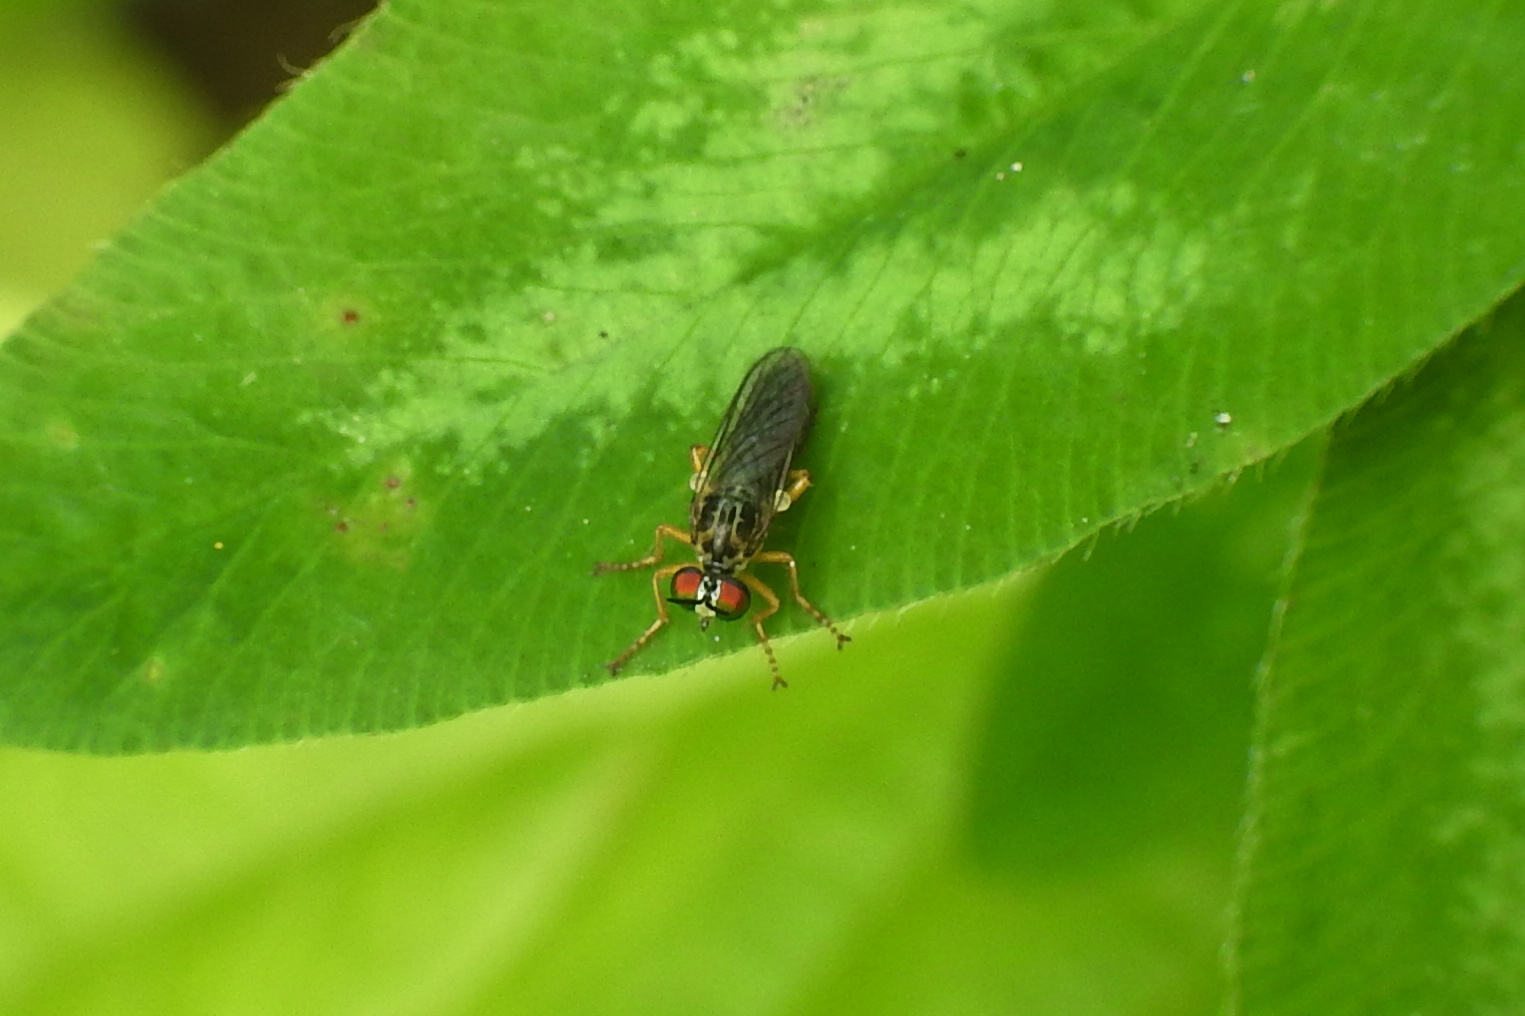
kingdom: Animalia
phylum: Arthropoda
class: Insecta
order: Diptera
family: Asilidae
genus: Taracticus
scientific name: Taracticus octopunctatus
